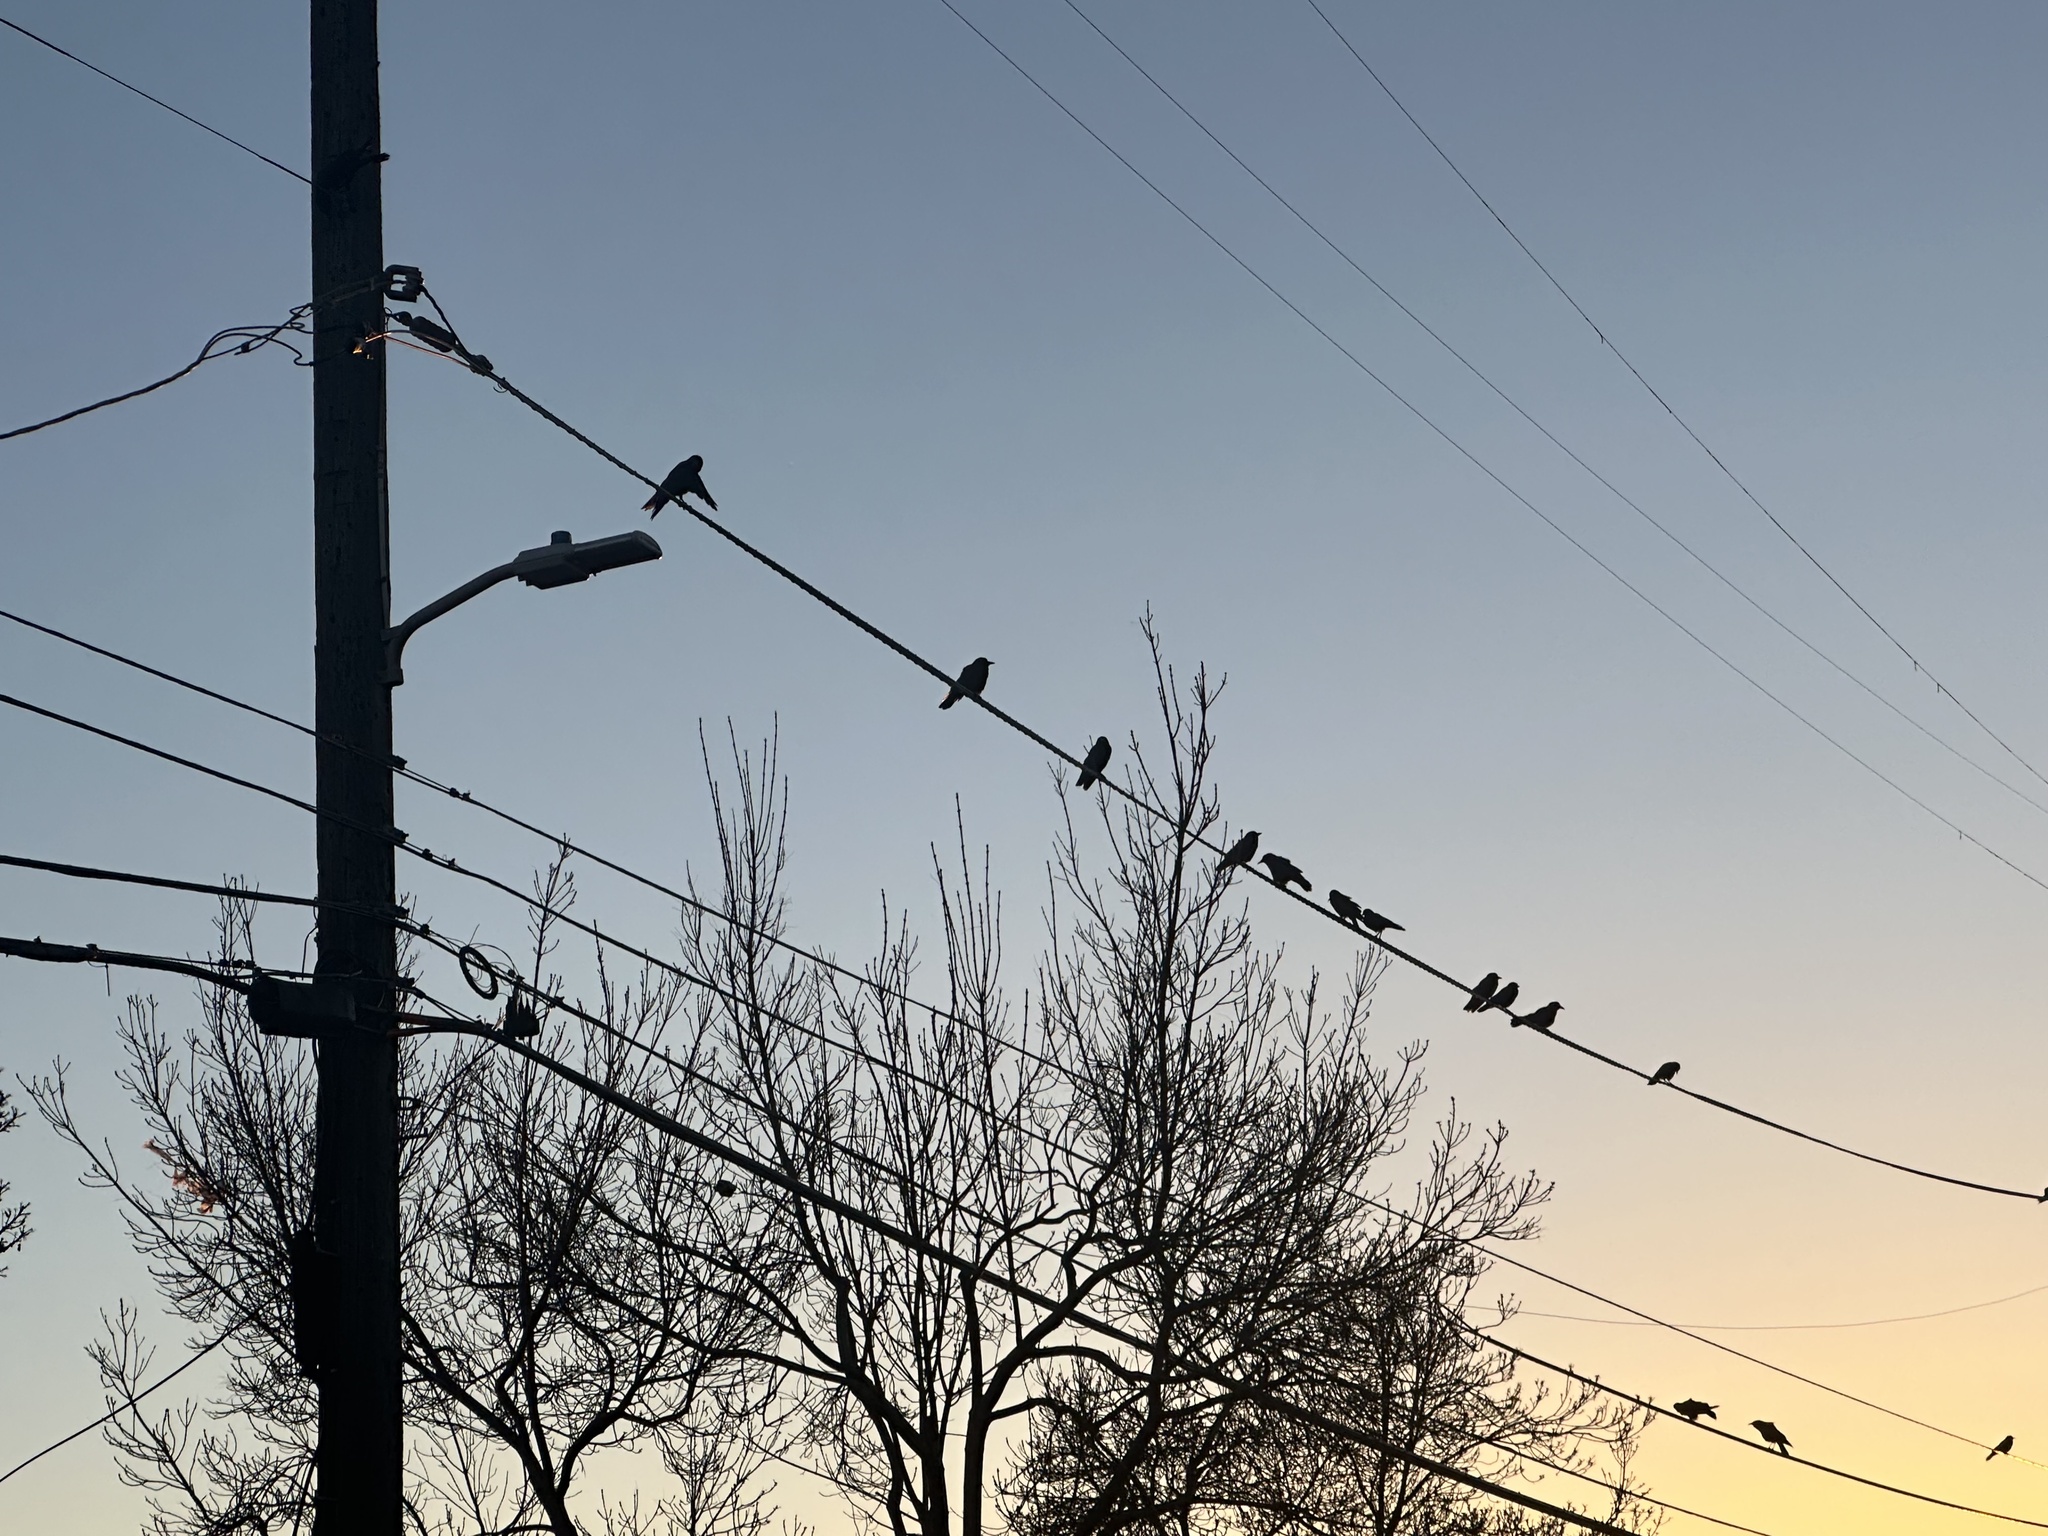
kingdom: Animalia
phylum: Chordata
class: Aves
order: Passeriformes
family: Corvidae
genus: Corvus
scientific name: Corvus brachyrhynchos
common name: American crow
